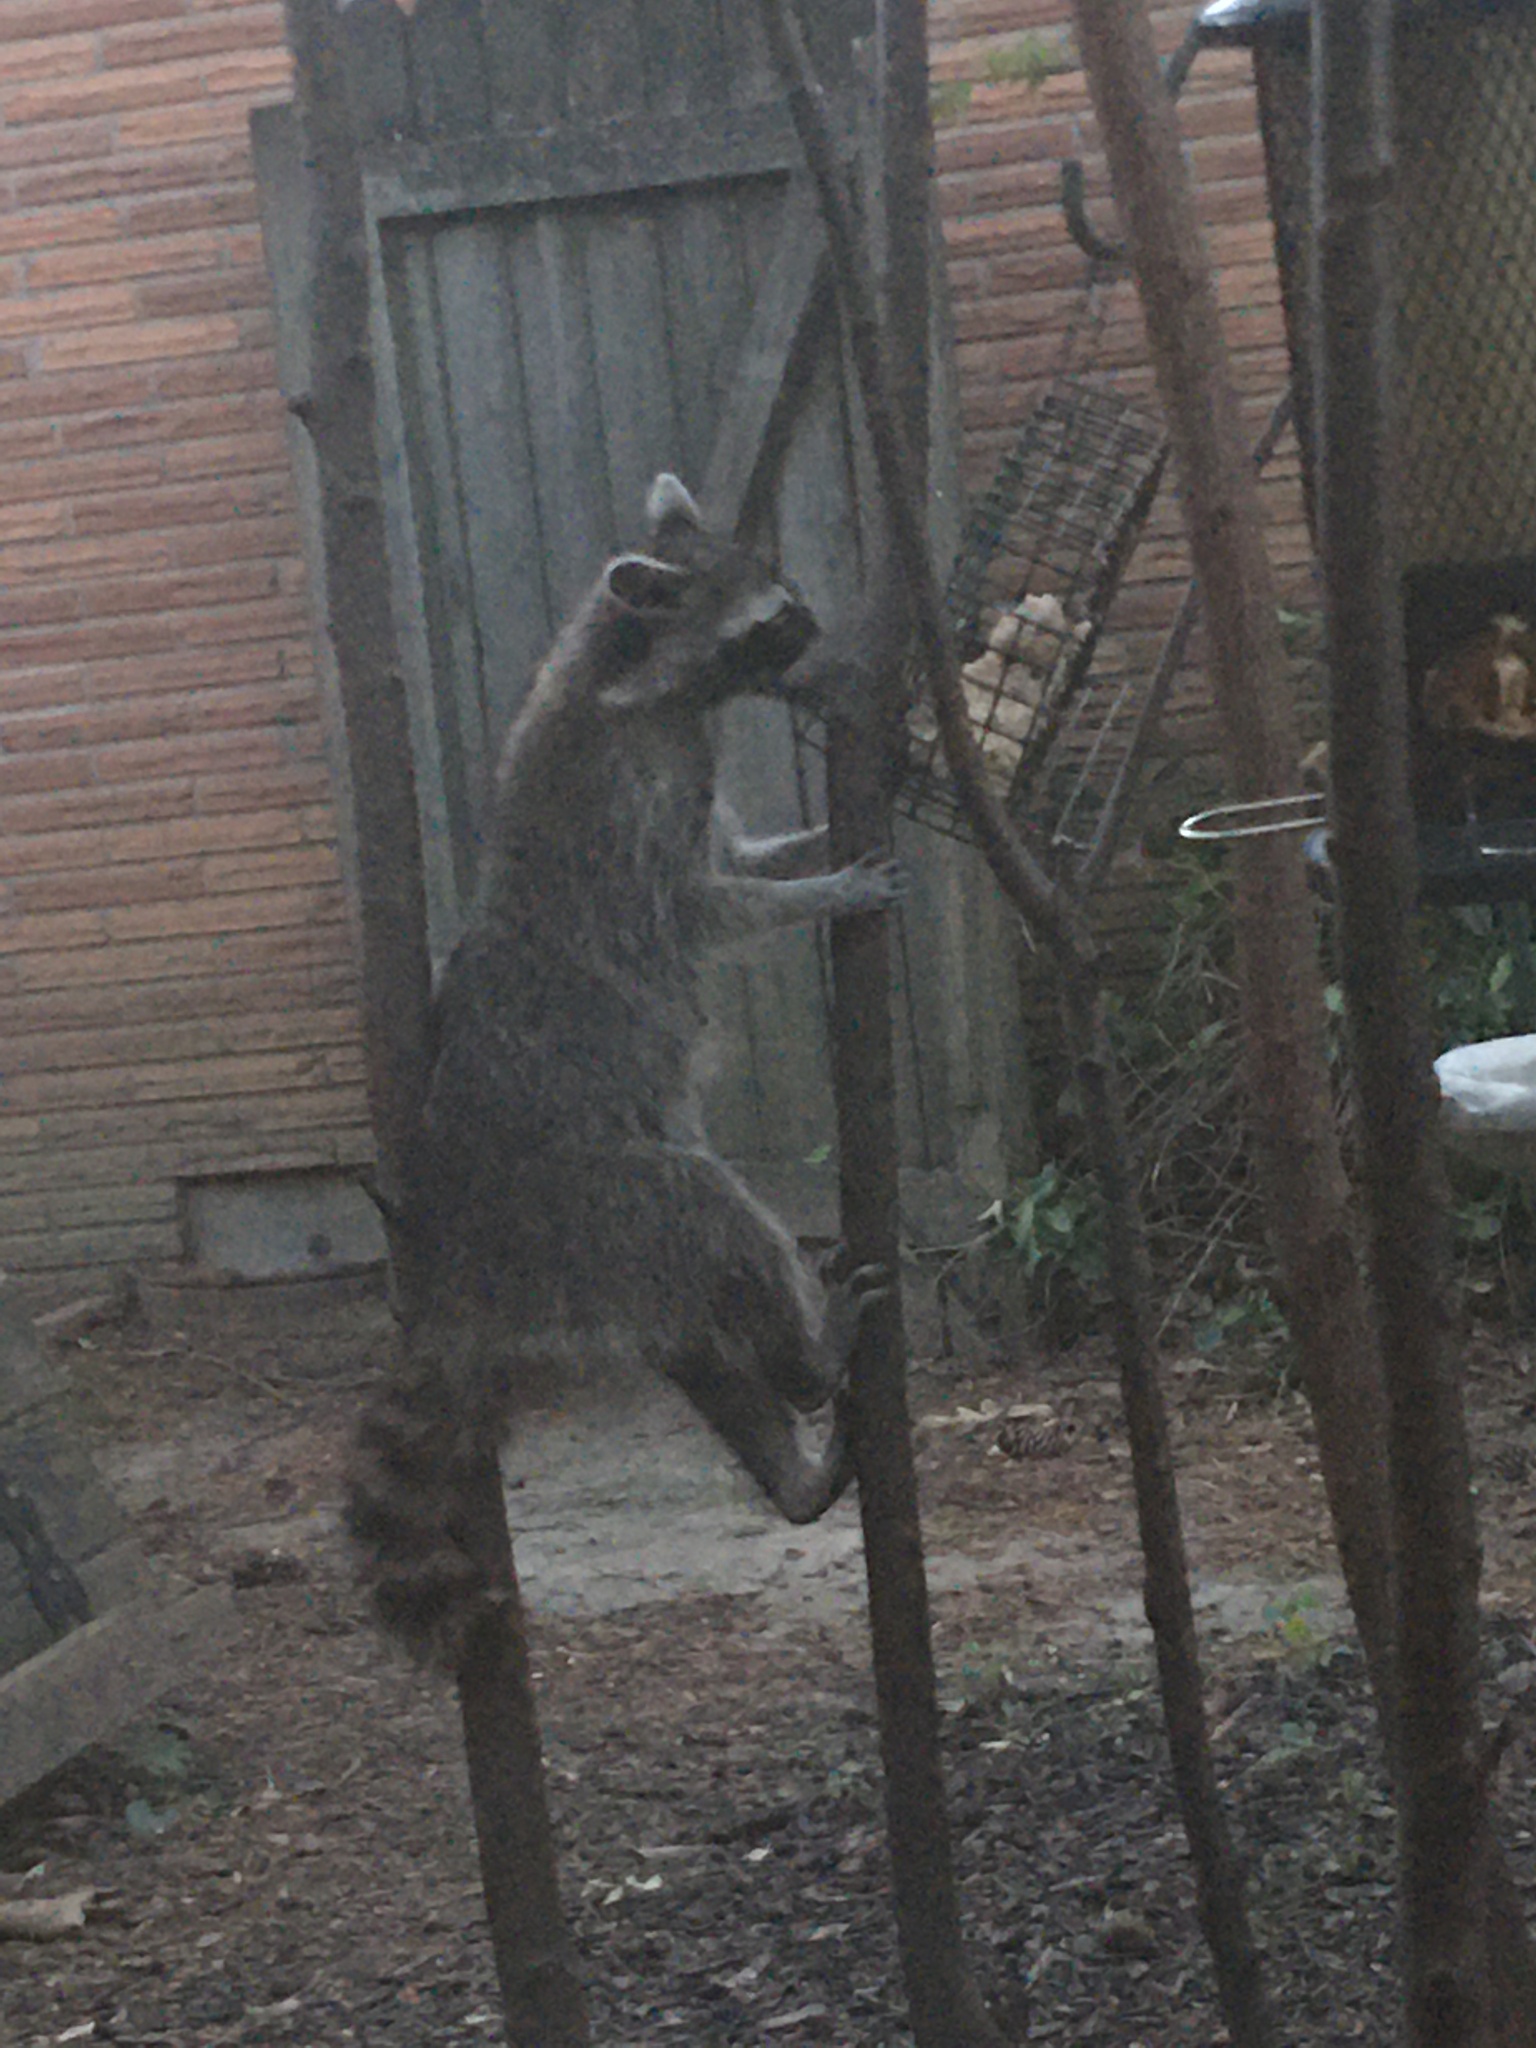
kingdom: Animalia
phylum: Chordata
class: Mammalia
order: Carnivora
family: Procyonidae
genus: Procyon
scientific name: Procyon lotor
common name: Raccoon
